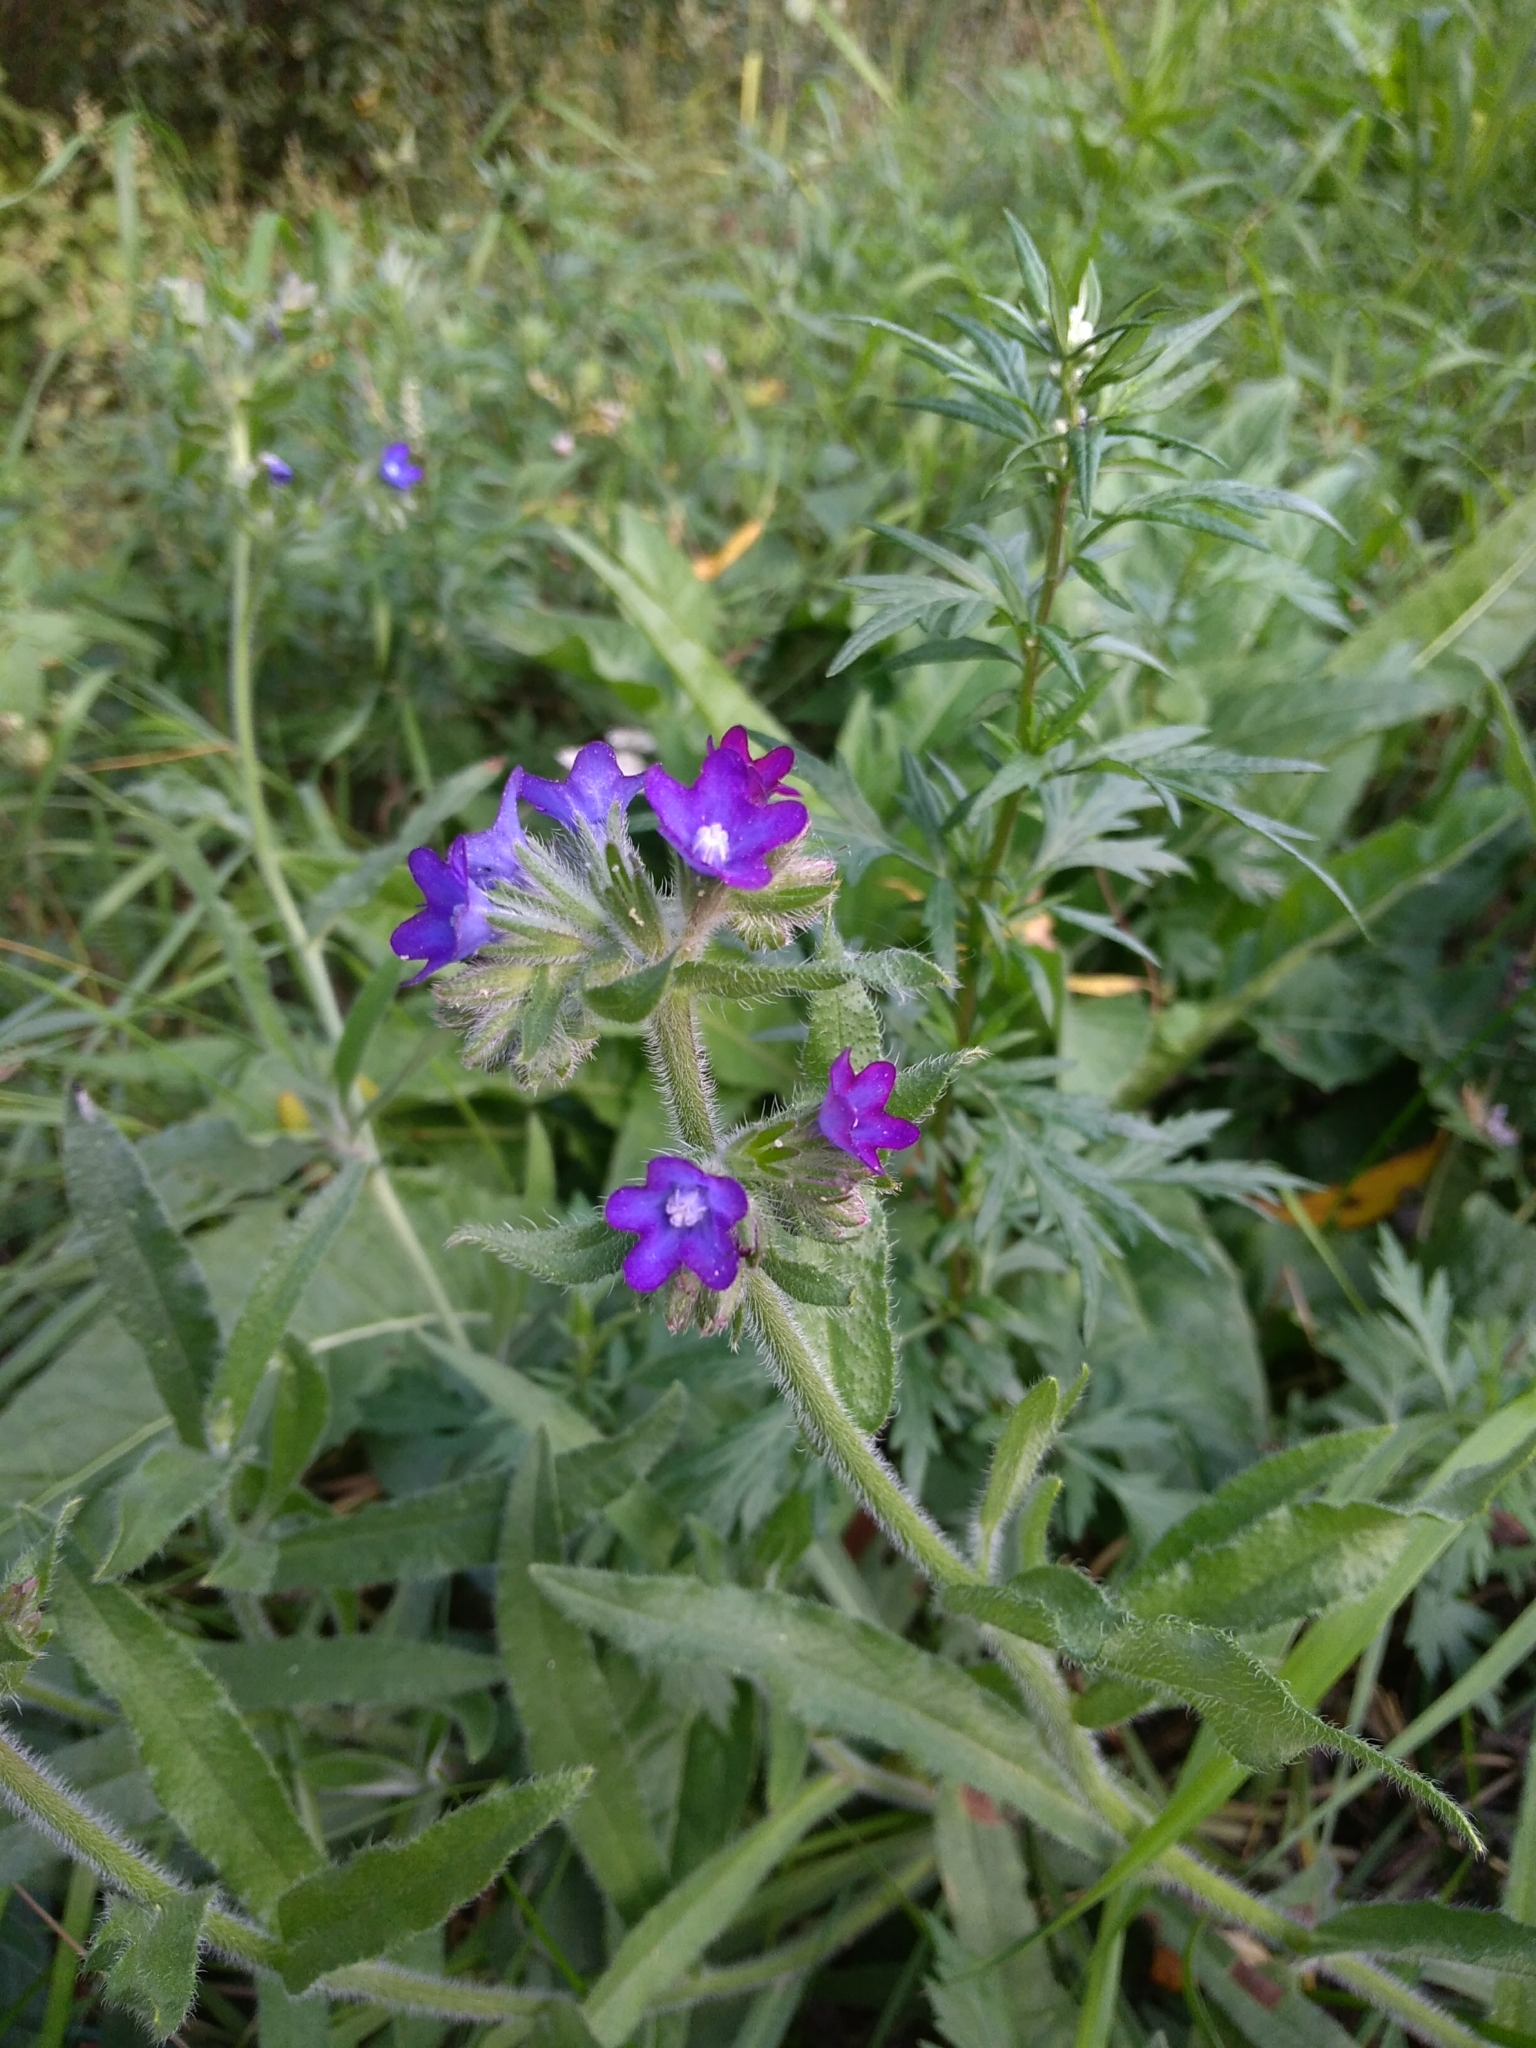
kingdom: Plantae
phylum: Tracheophyta
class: Magnoliopsida
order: Boraginales
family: Boraginaceae
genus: Anchusa
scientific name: Anchusa officinalis
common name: Alkanet
